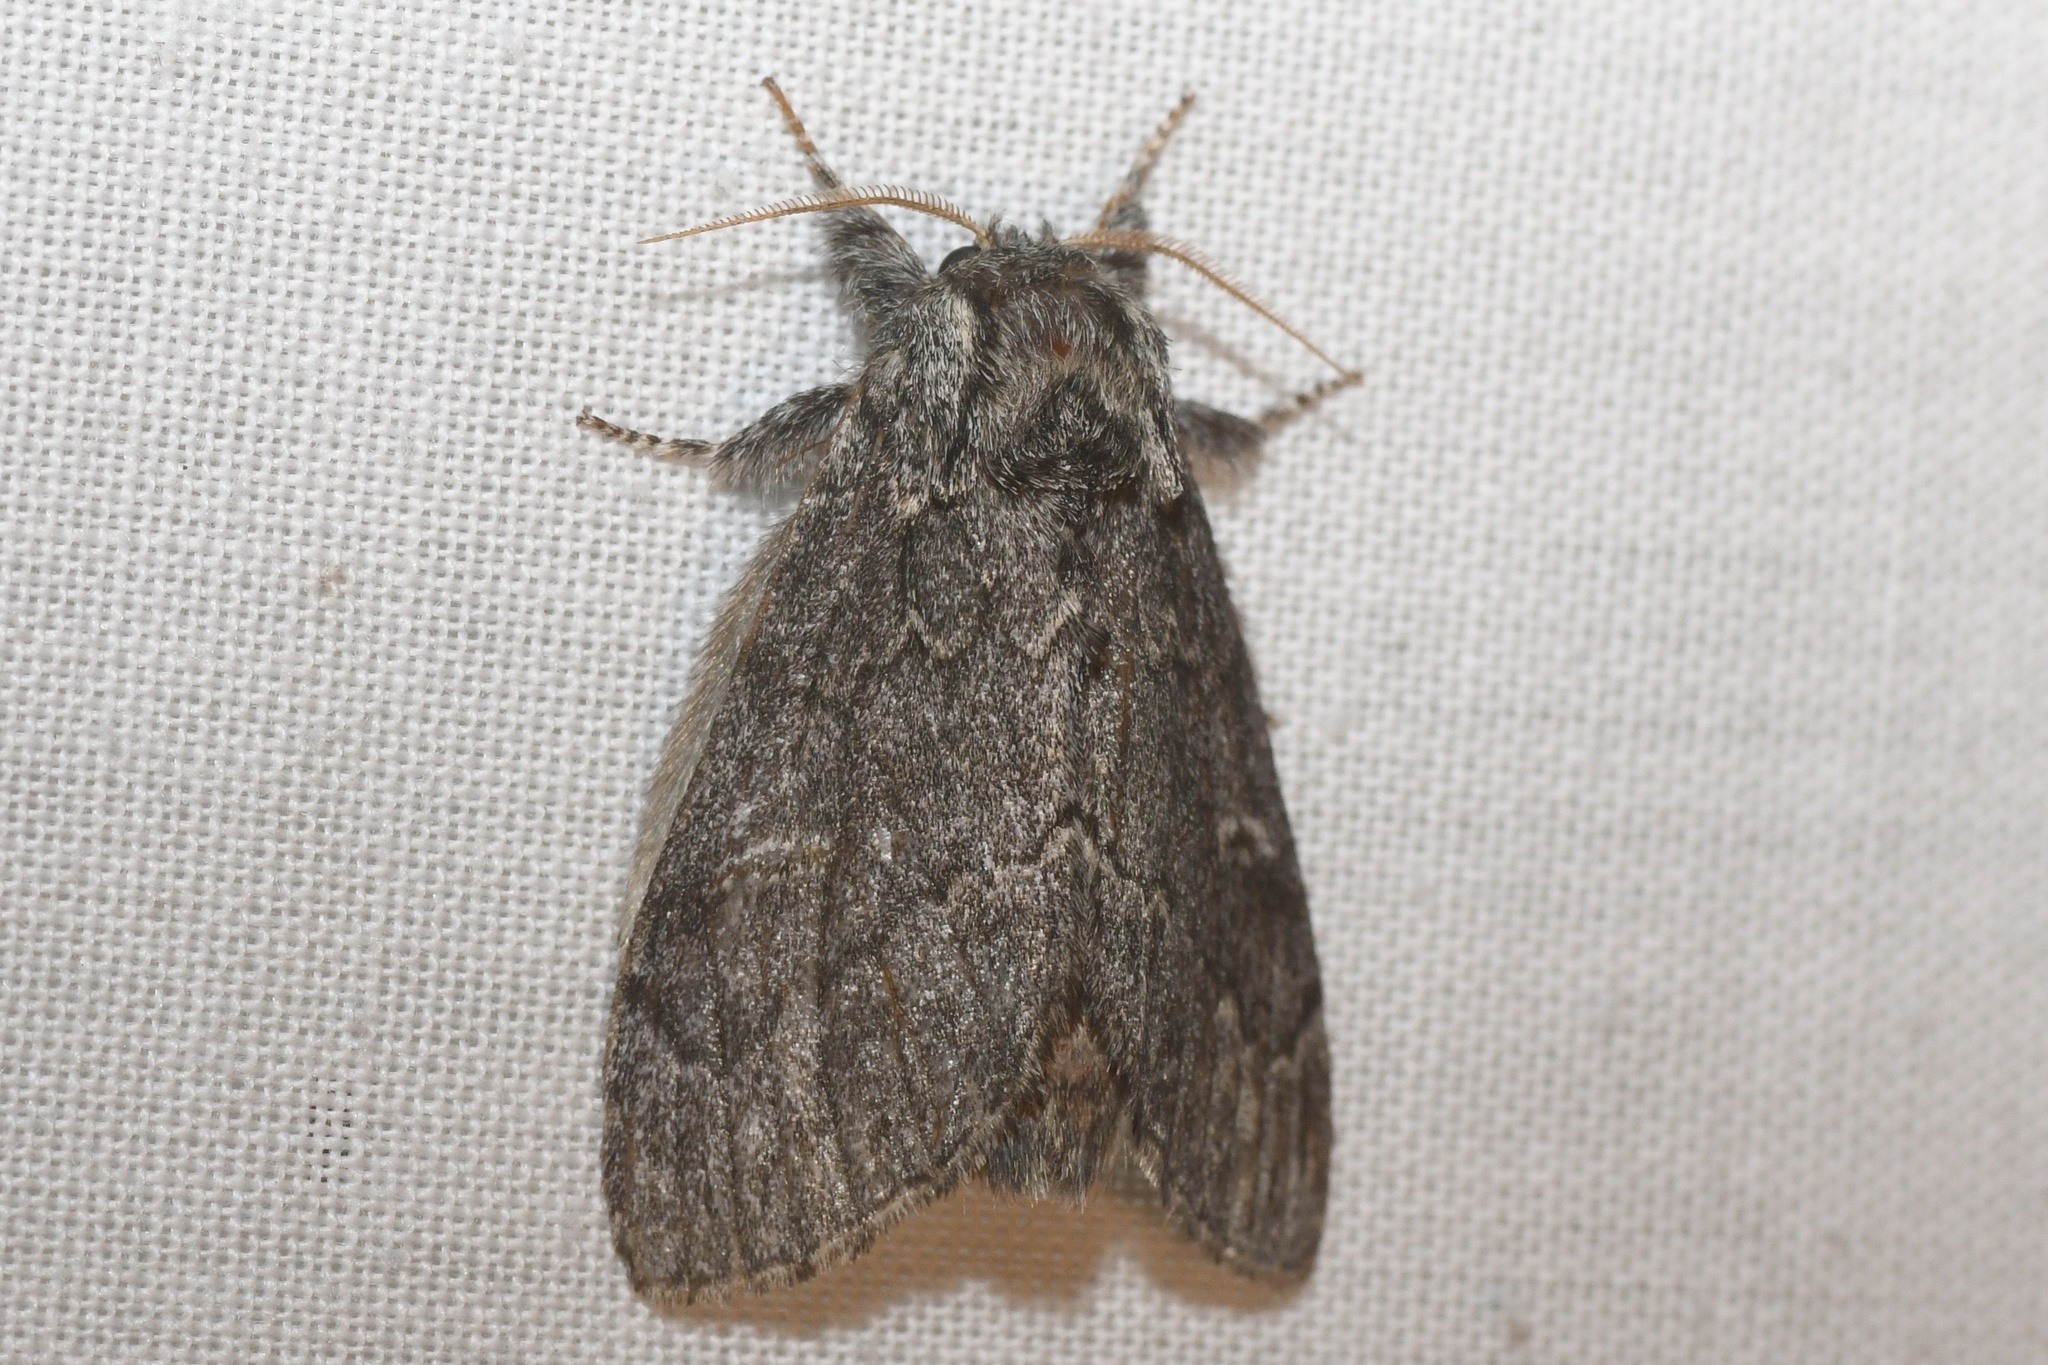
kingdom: Animalia
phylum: Arthropoda
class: Insecta
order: Lepidoptera
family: Notodontidae
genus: Notodonta
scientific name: Notodonta torva
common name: Large dark prominent
